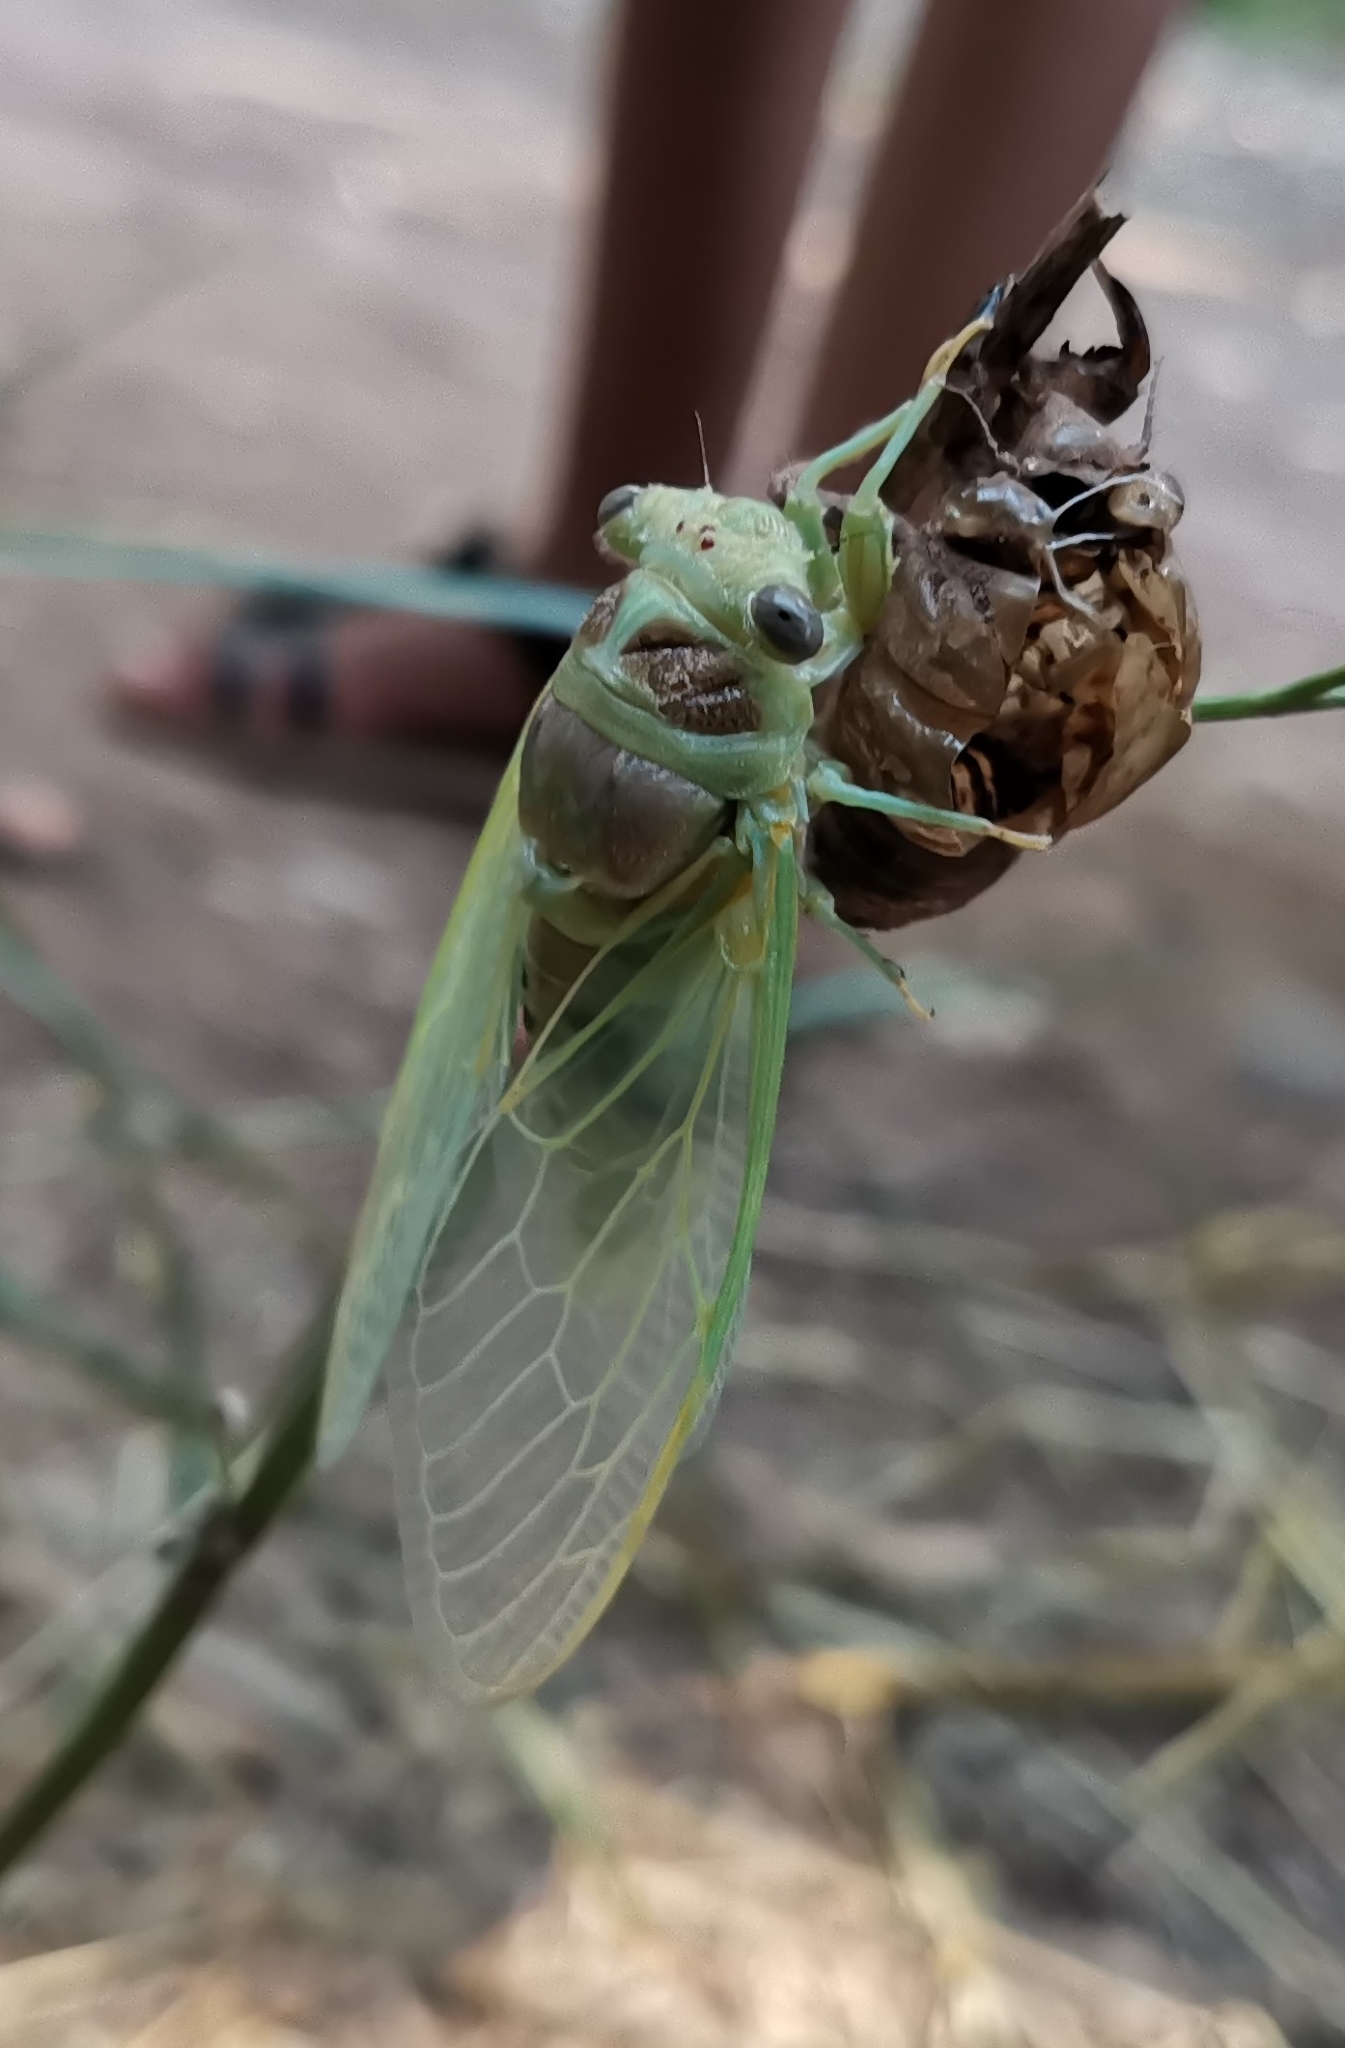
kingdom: Animalia
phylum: Arthropoda
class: Insecta
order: Hemiptera
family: Cicadidae
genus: Lyristes
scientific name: Lyristes plebejus
